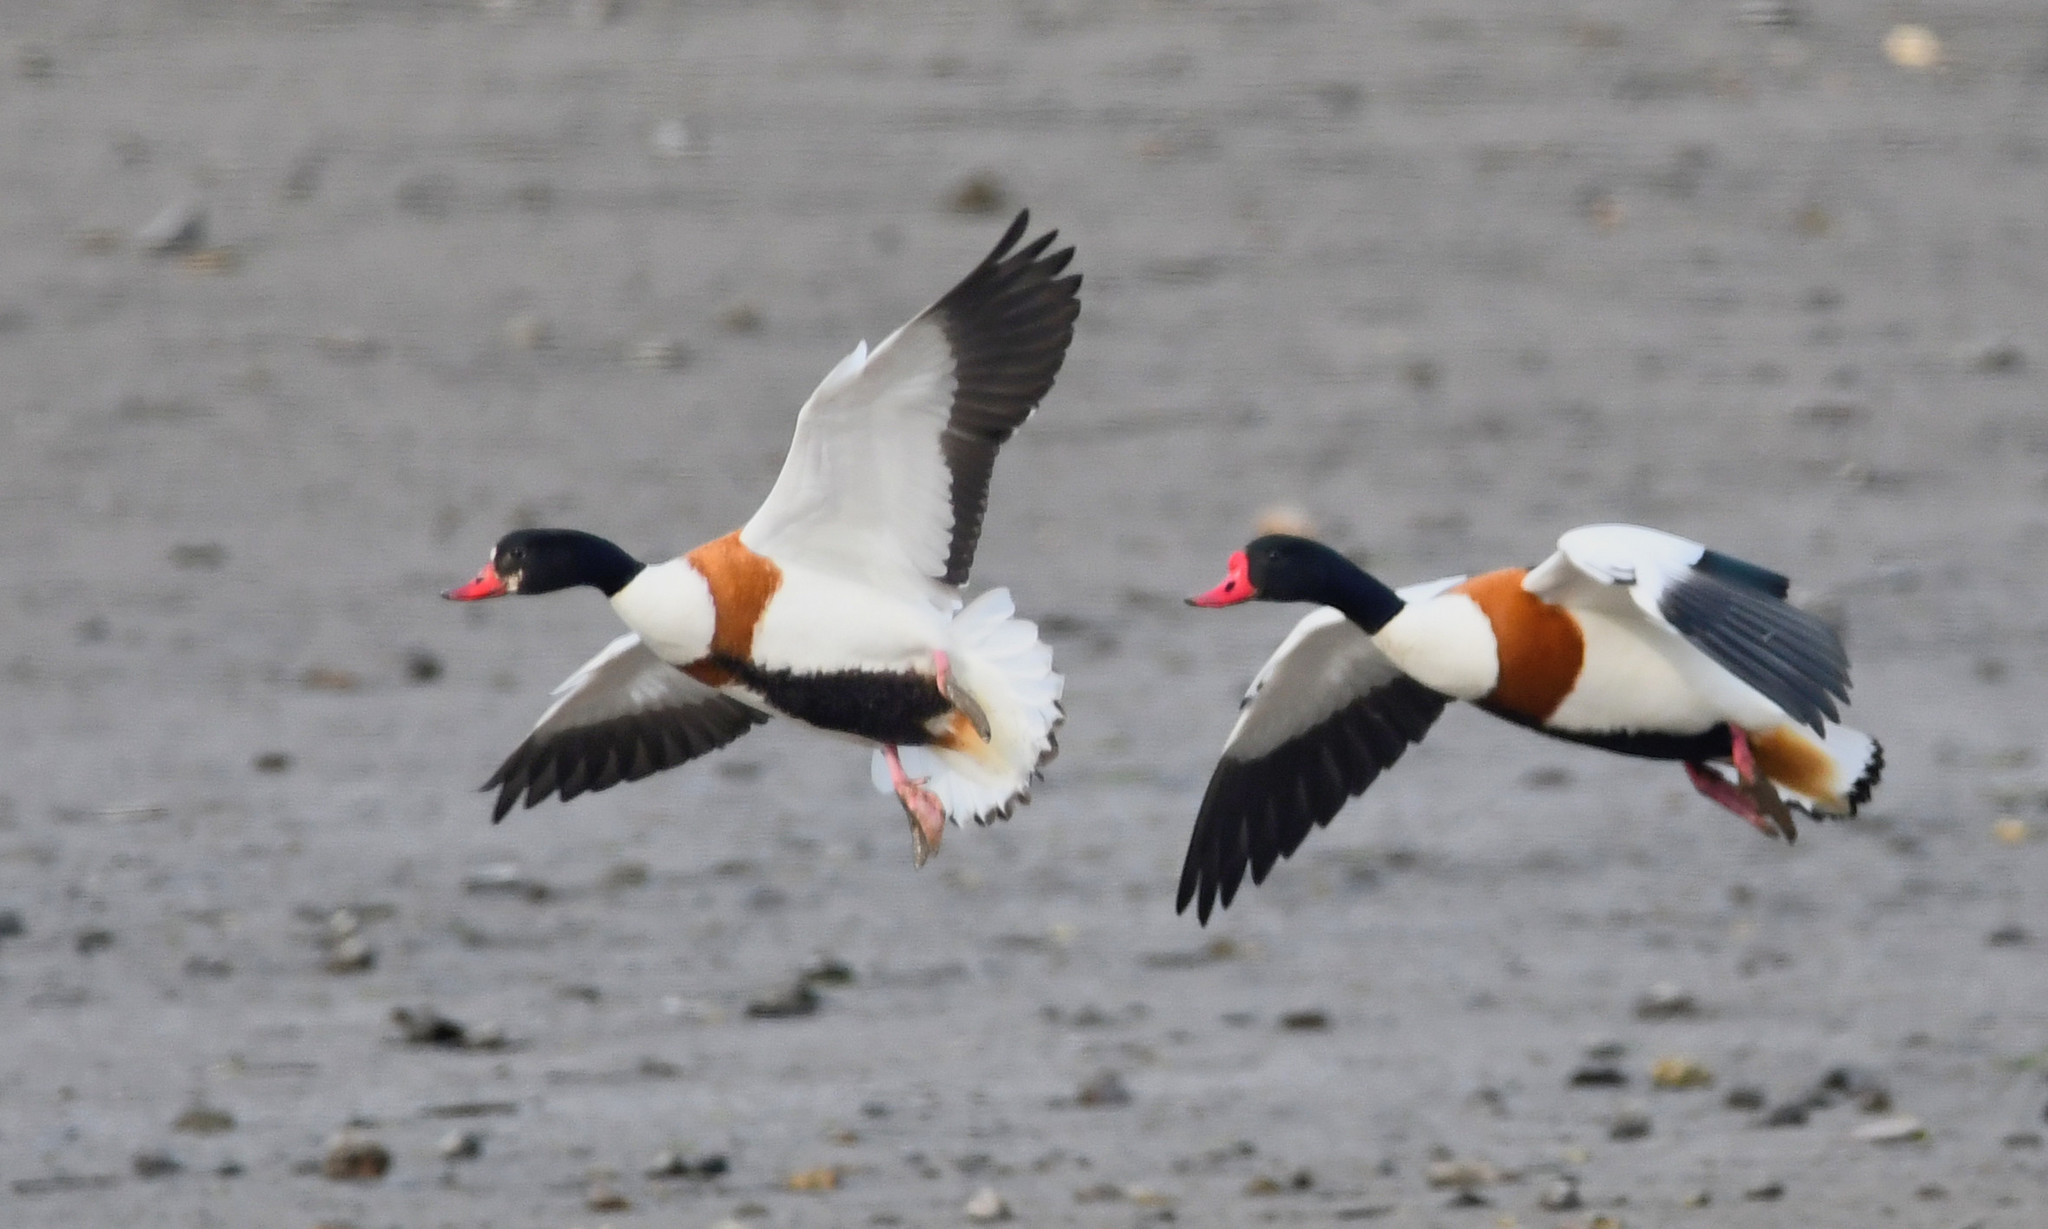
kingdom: Animalia
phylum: Chordata
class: Aves
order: Anseriformes
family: Anatidae
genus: Tadorna
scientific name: Tadorna tadorna
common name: Common shelduck
